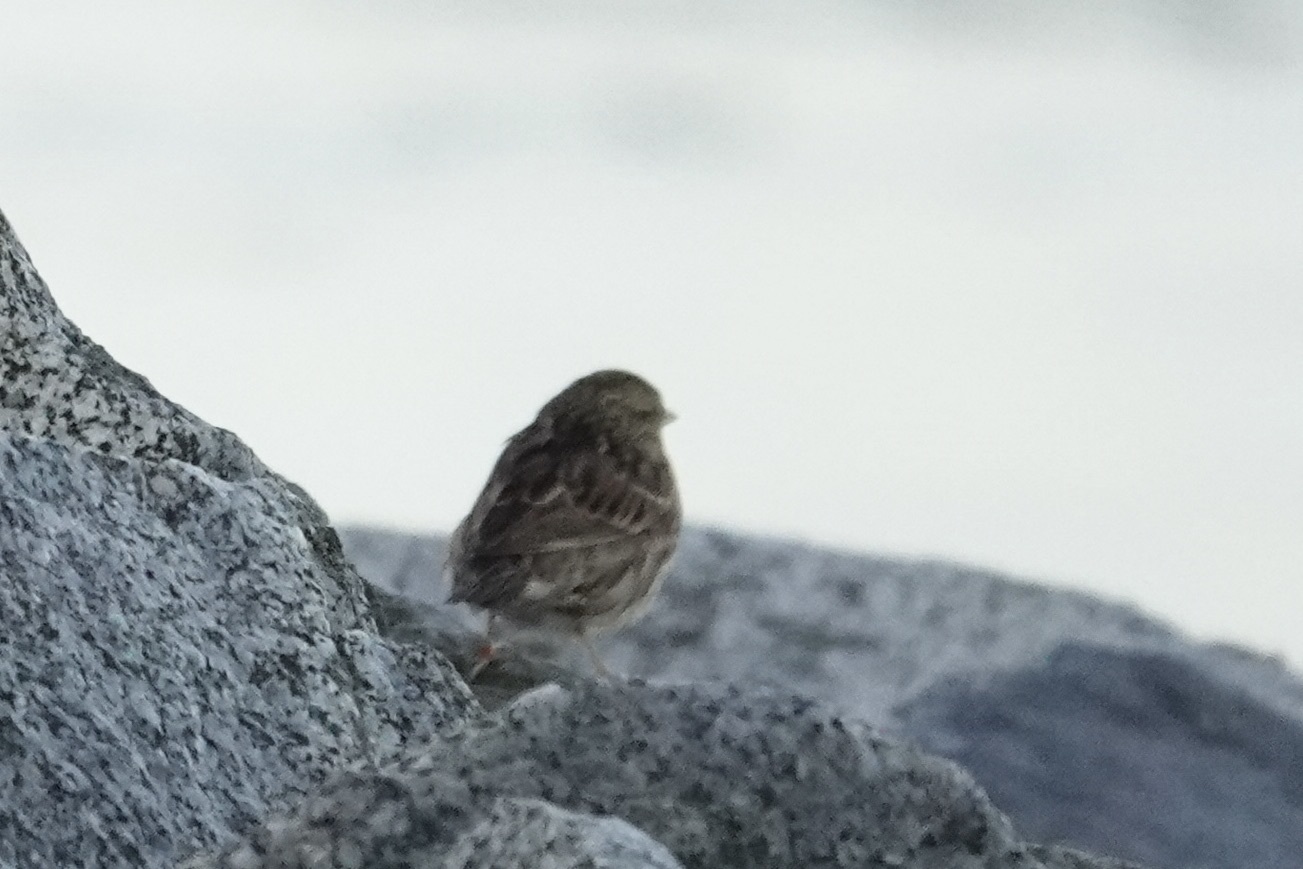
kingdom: Animalia
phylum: Chordata
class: Aves
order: Passeriformes
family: Passerellidae
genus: Passerculus
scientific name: Passerculus sandwichensis
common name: Savannah sparrow
